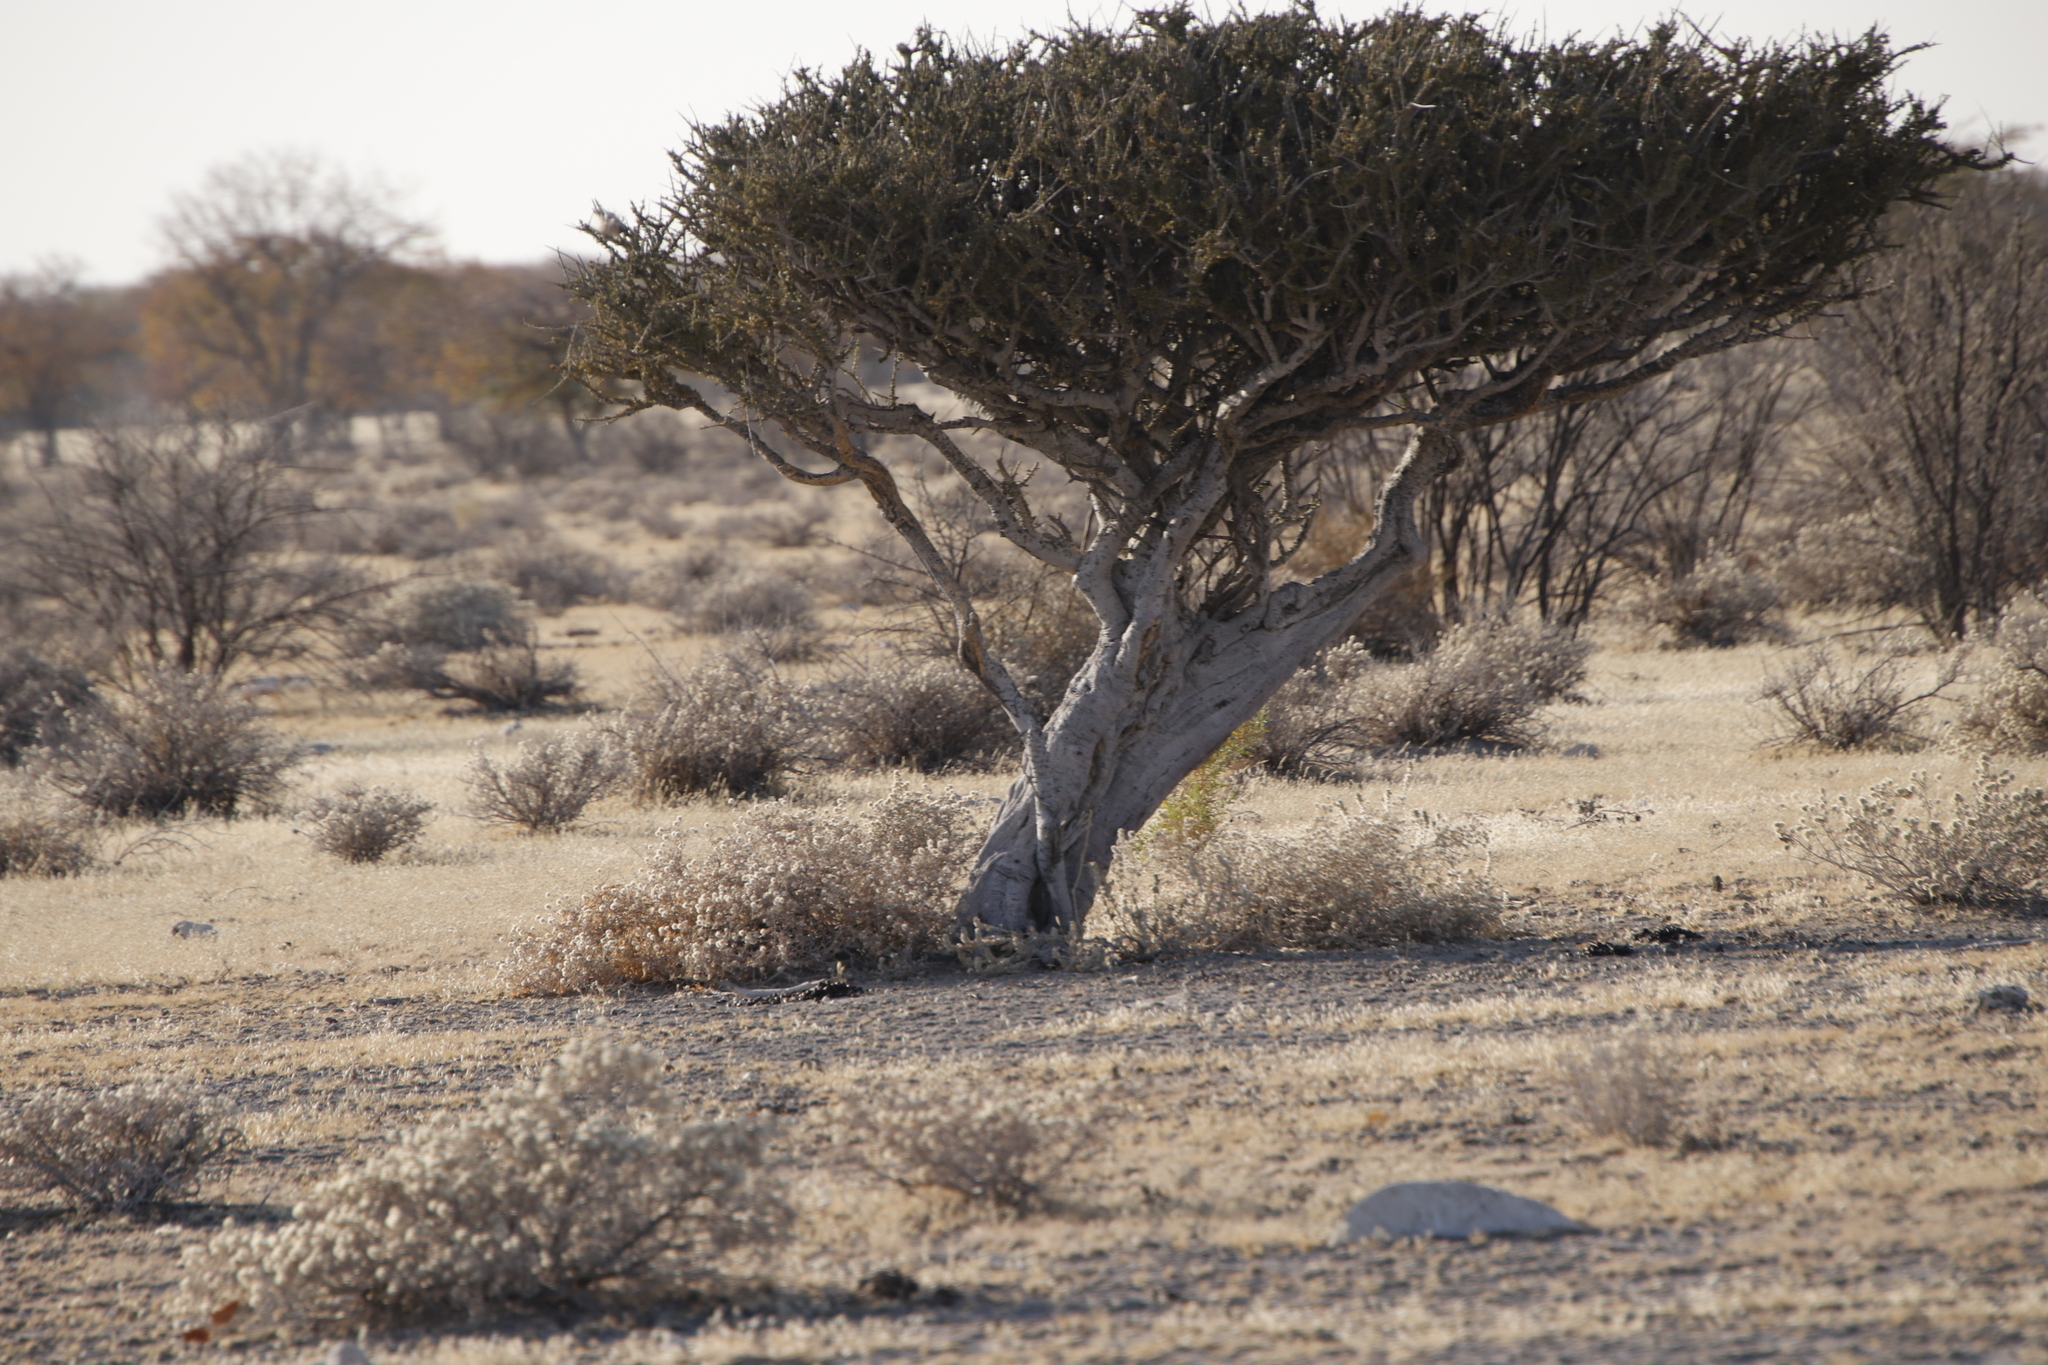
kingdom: Plantae
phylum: Tracheophyta
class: Magnoliopsida
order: Brassicales
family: Capparaceae
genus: Boscia
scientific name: Boscia albitrunca
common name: Caper bush
